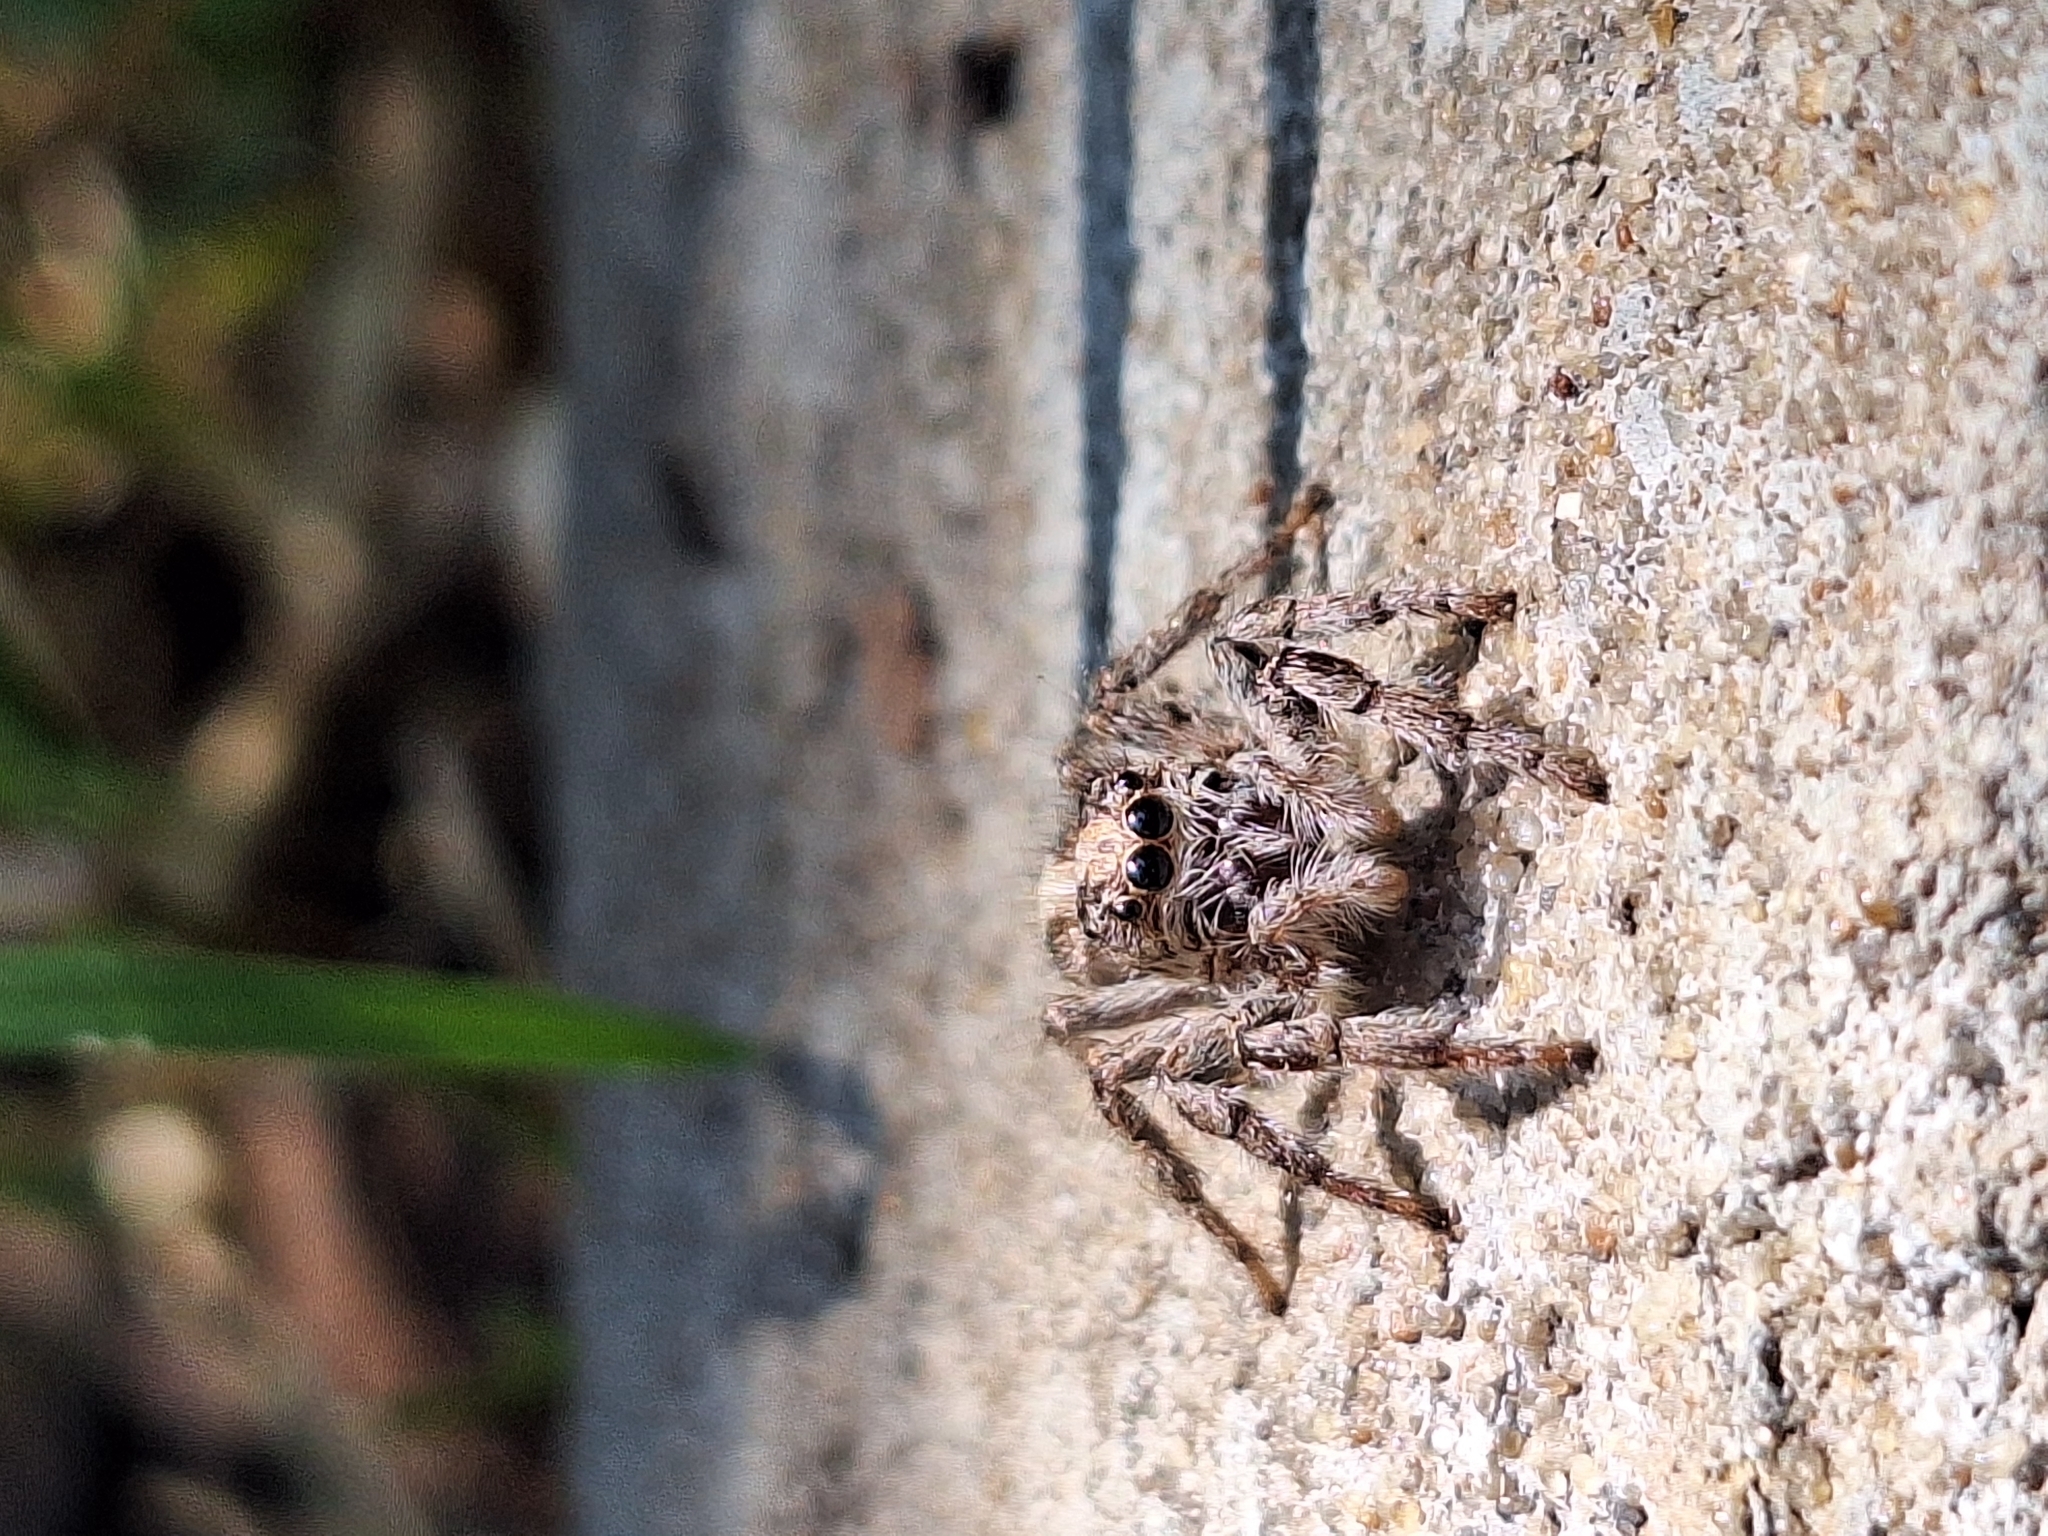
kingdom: Animalia
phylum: Arthropoda
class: Arachnida
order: Araneae
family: Salticidae
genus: Megafreya
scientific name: Megafreya sutrix
